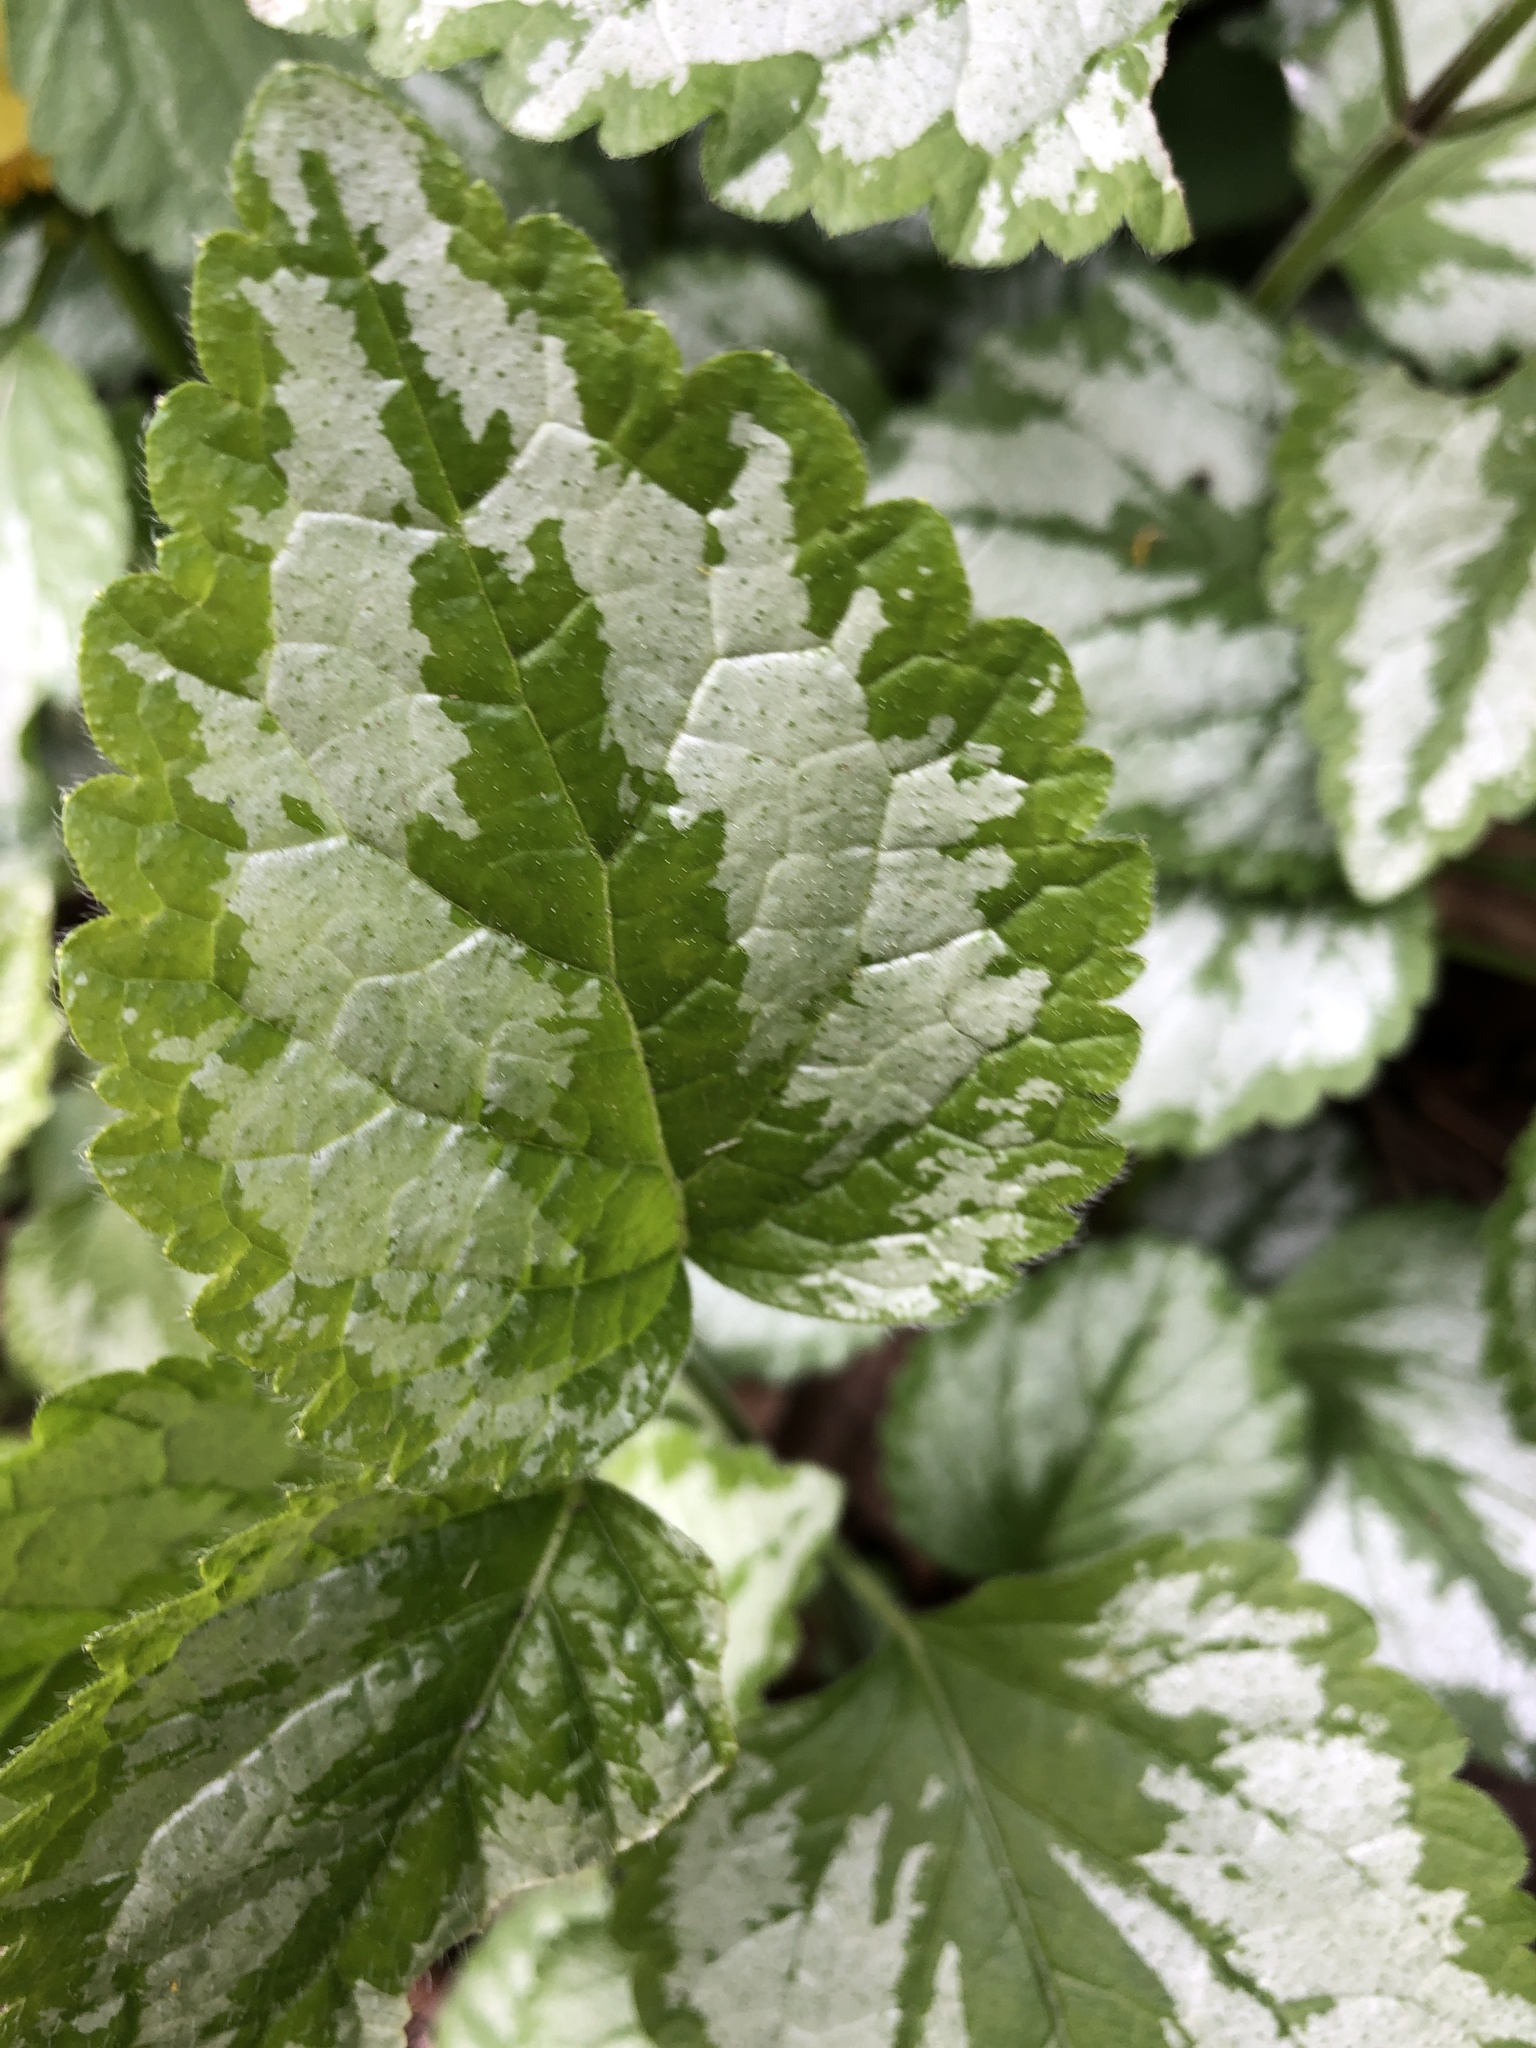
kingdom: Plantae
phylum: Tracheophyta
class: Magnoliopsida
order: Lamiales
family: Lamiaceae
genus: Lamium
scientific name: Lamium galeobdolon
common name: Yellow archangel
